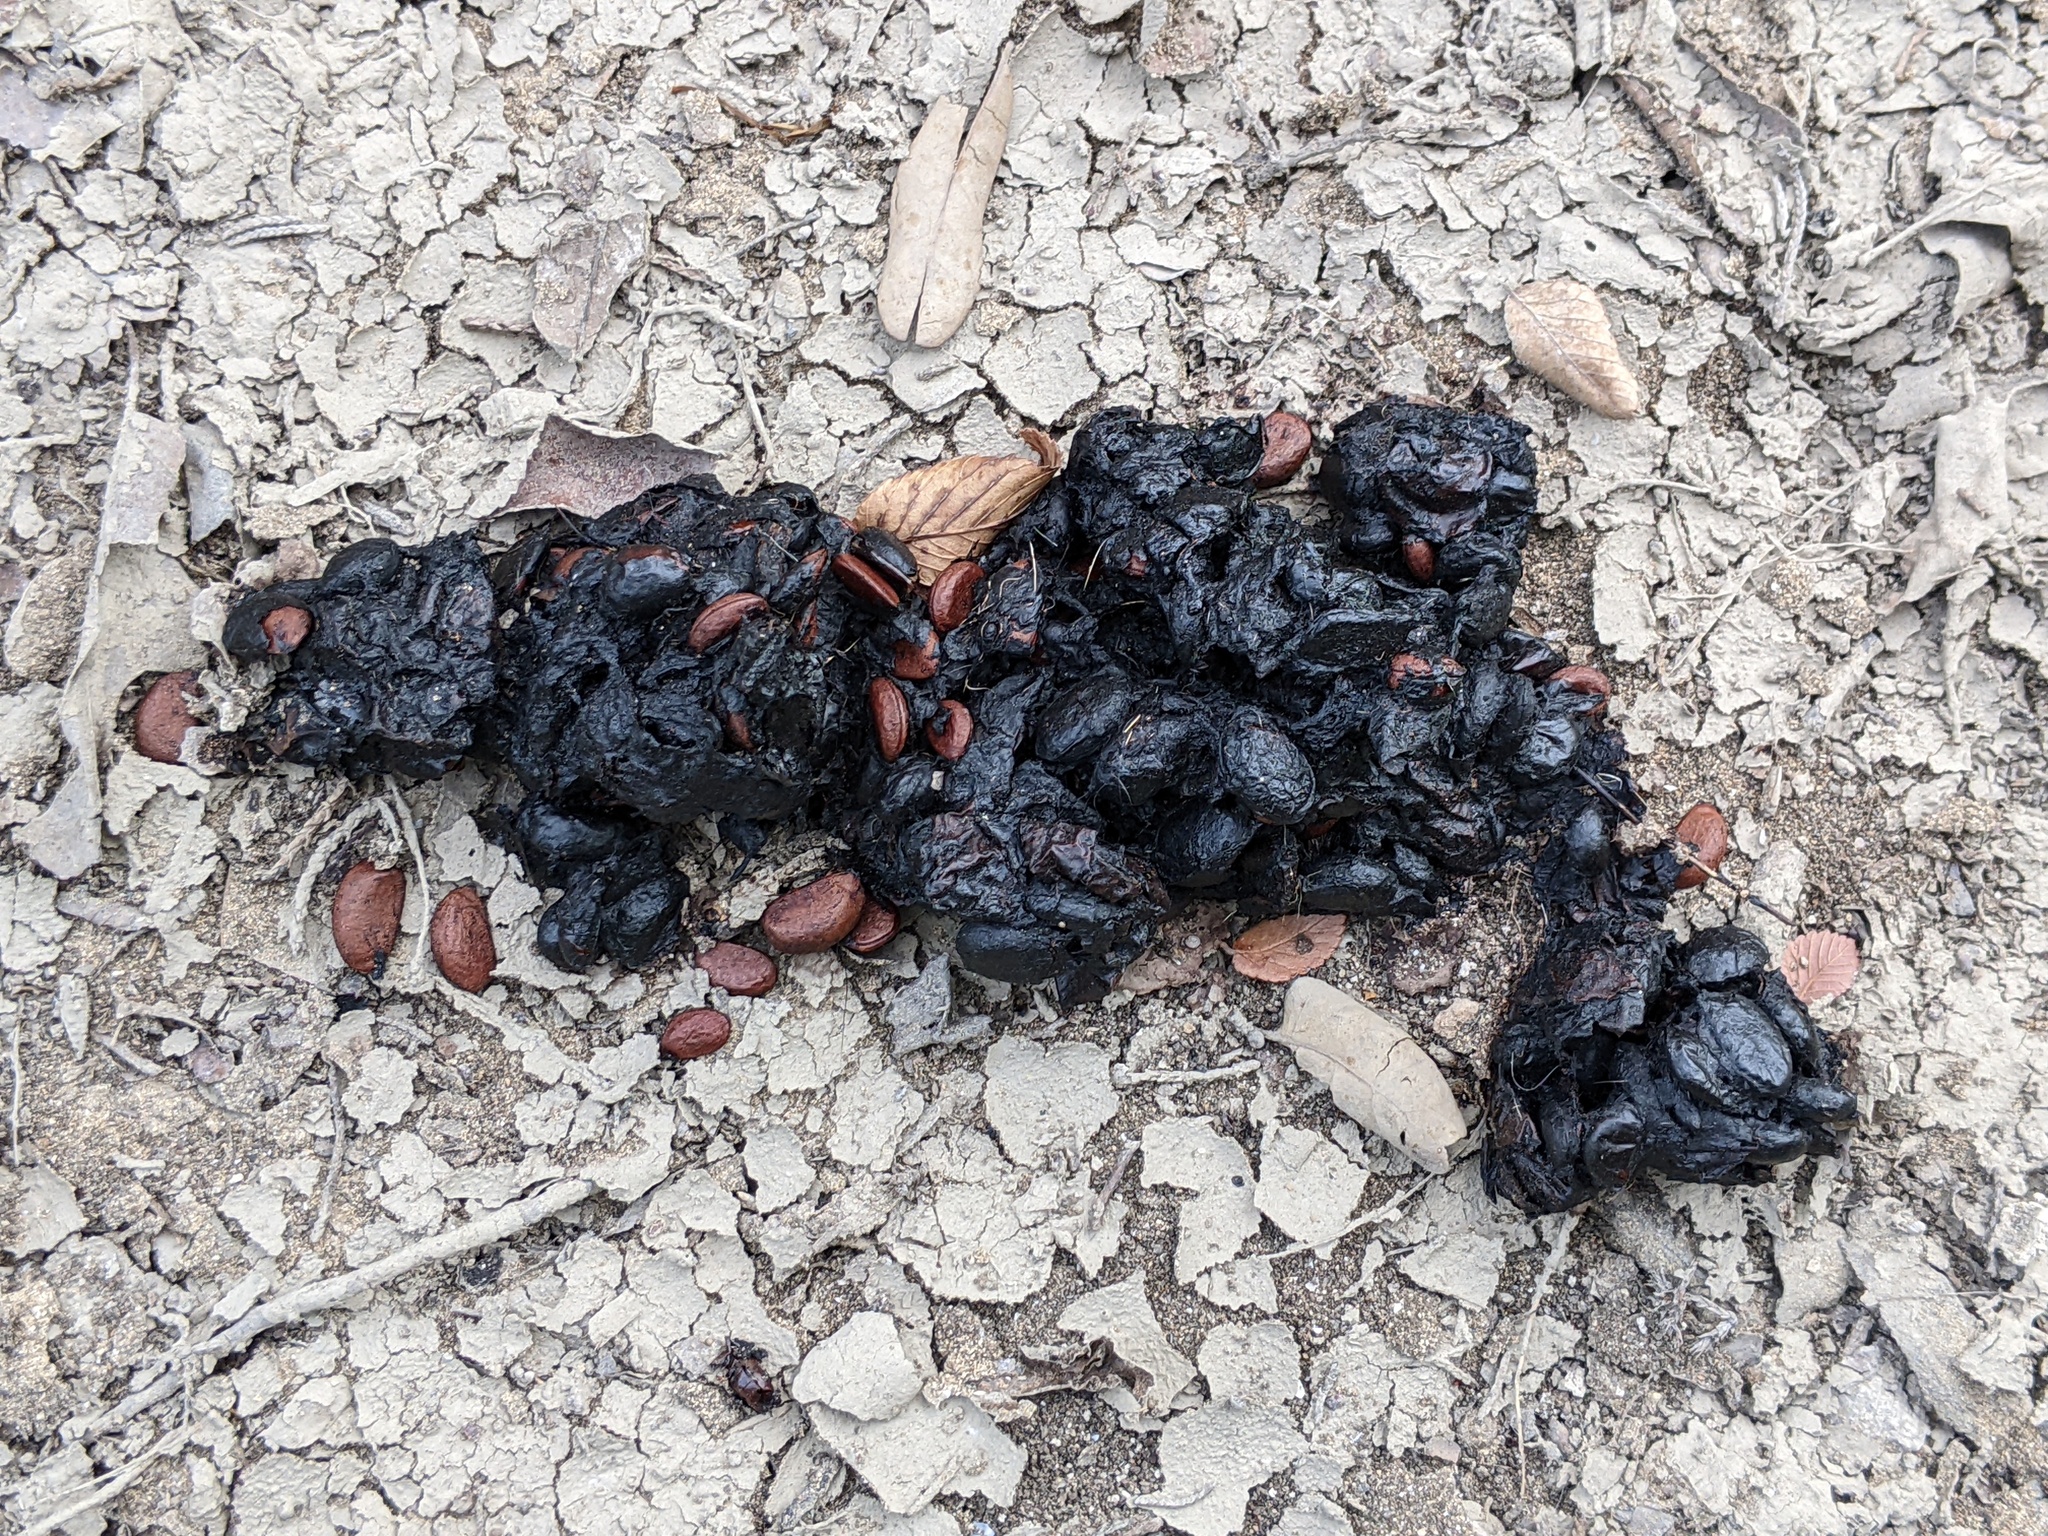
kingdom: Plantae
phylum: Tracheophyta
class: Magnoliopsida
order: Ericales
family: Ebenaceae
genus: Diospyros
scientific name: Diospyros texana
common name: Texas persimmon
